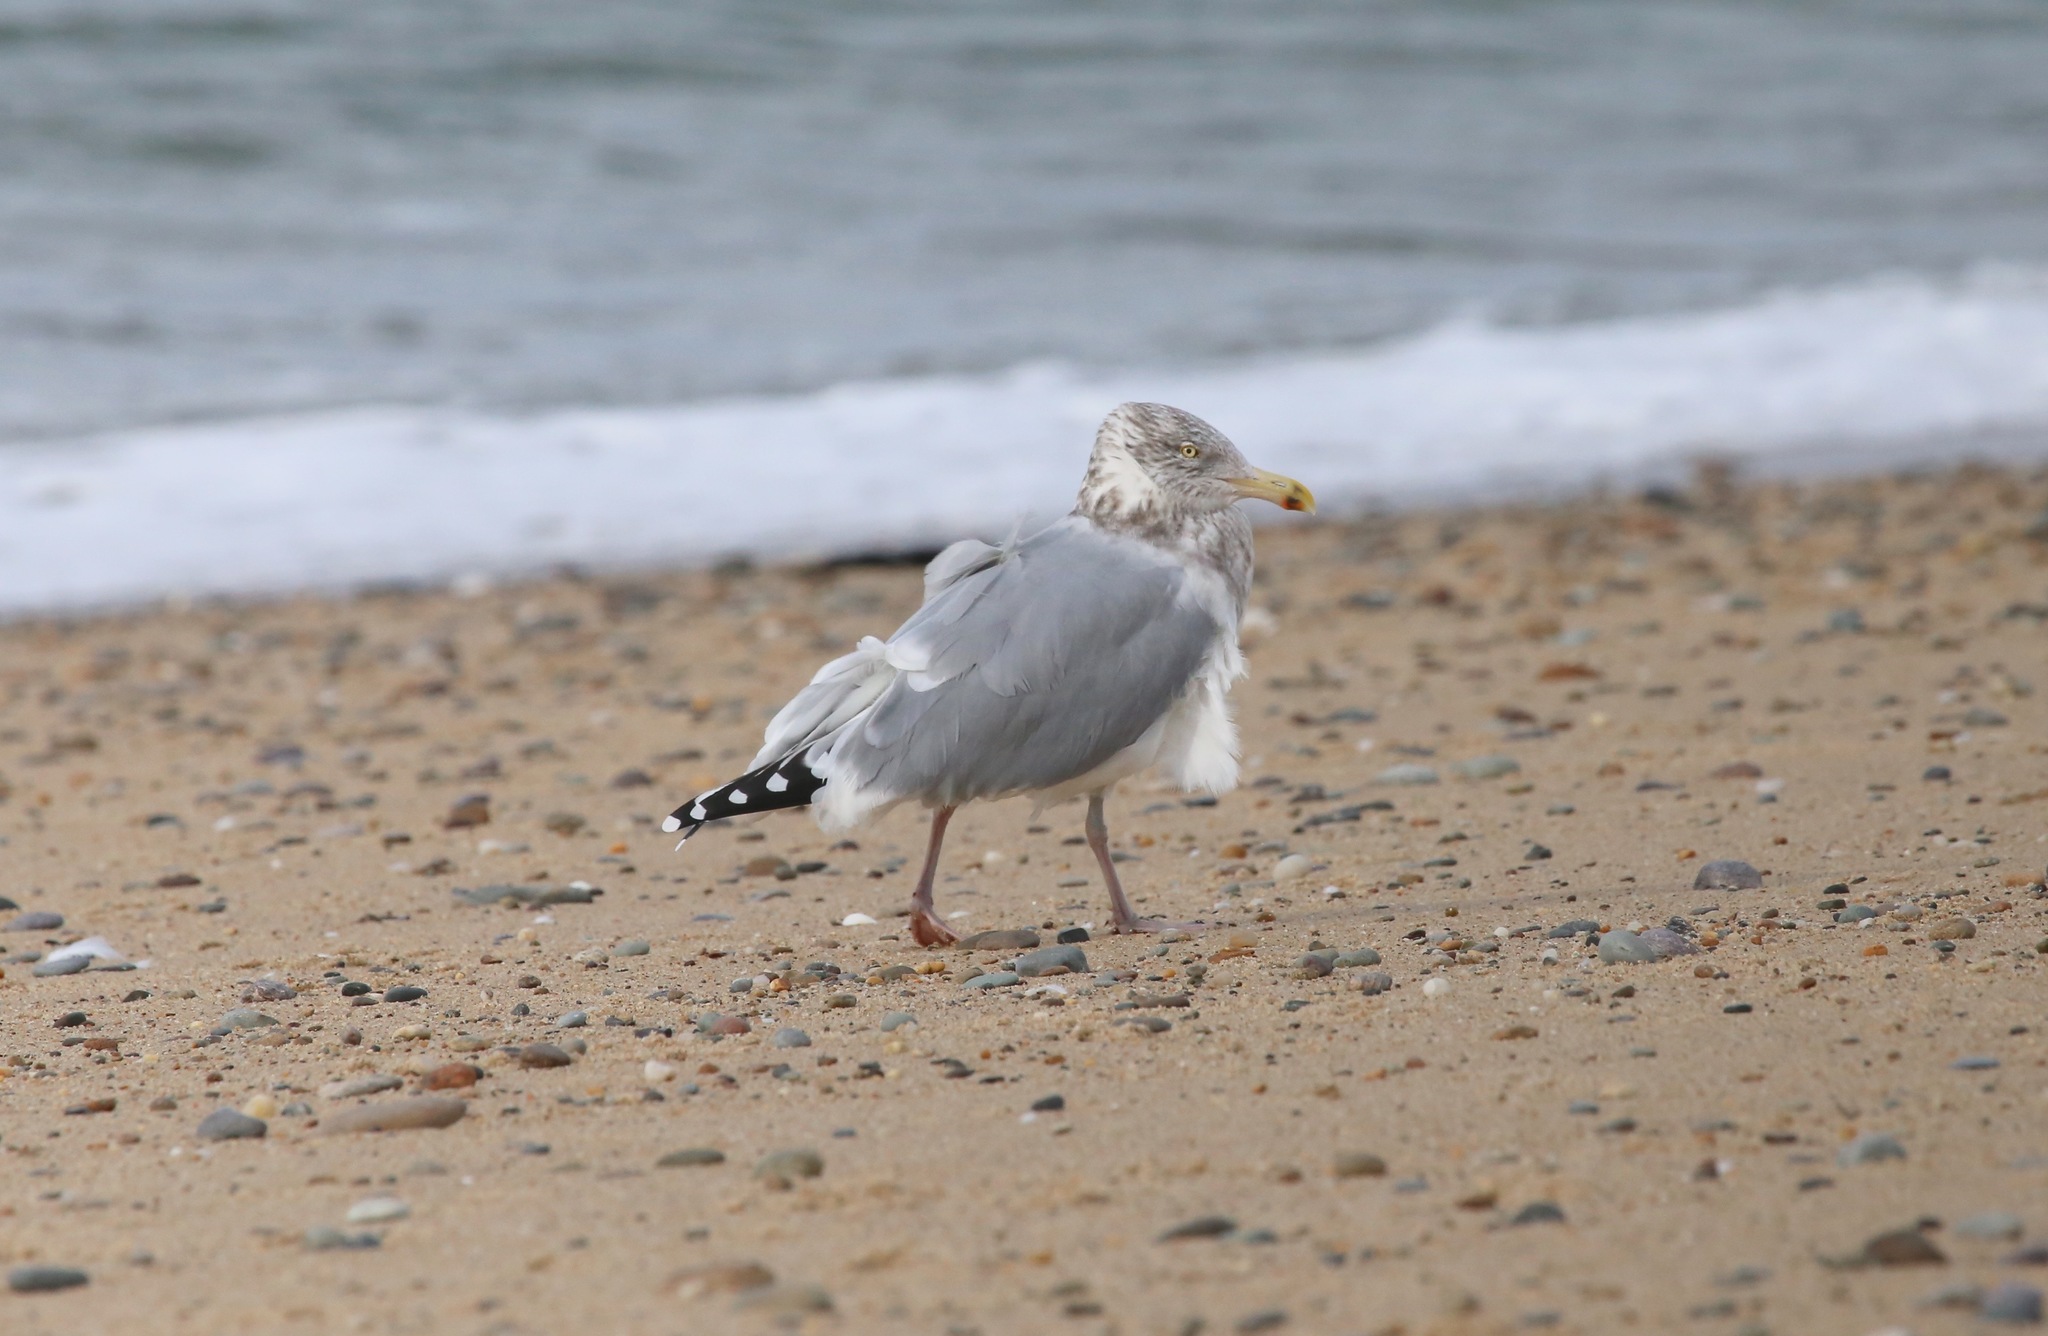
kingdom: Animalia
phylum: Chordata
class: Aves
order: Charadriiformes
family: Laridae
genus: Larus
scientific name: Larus argentatus
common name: Herring gull
